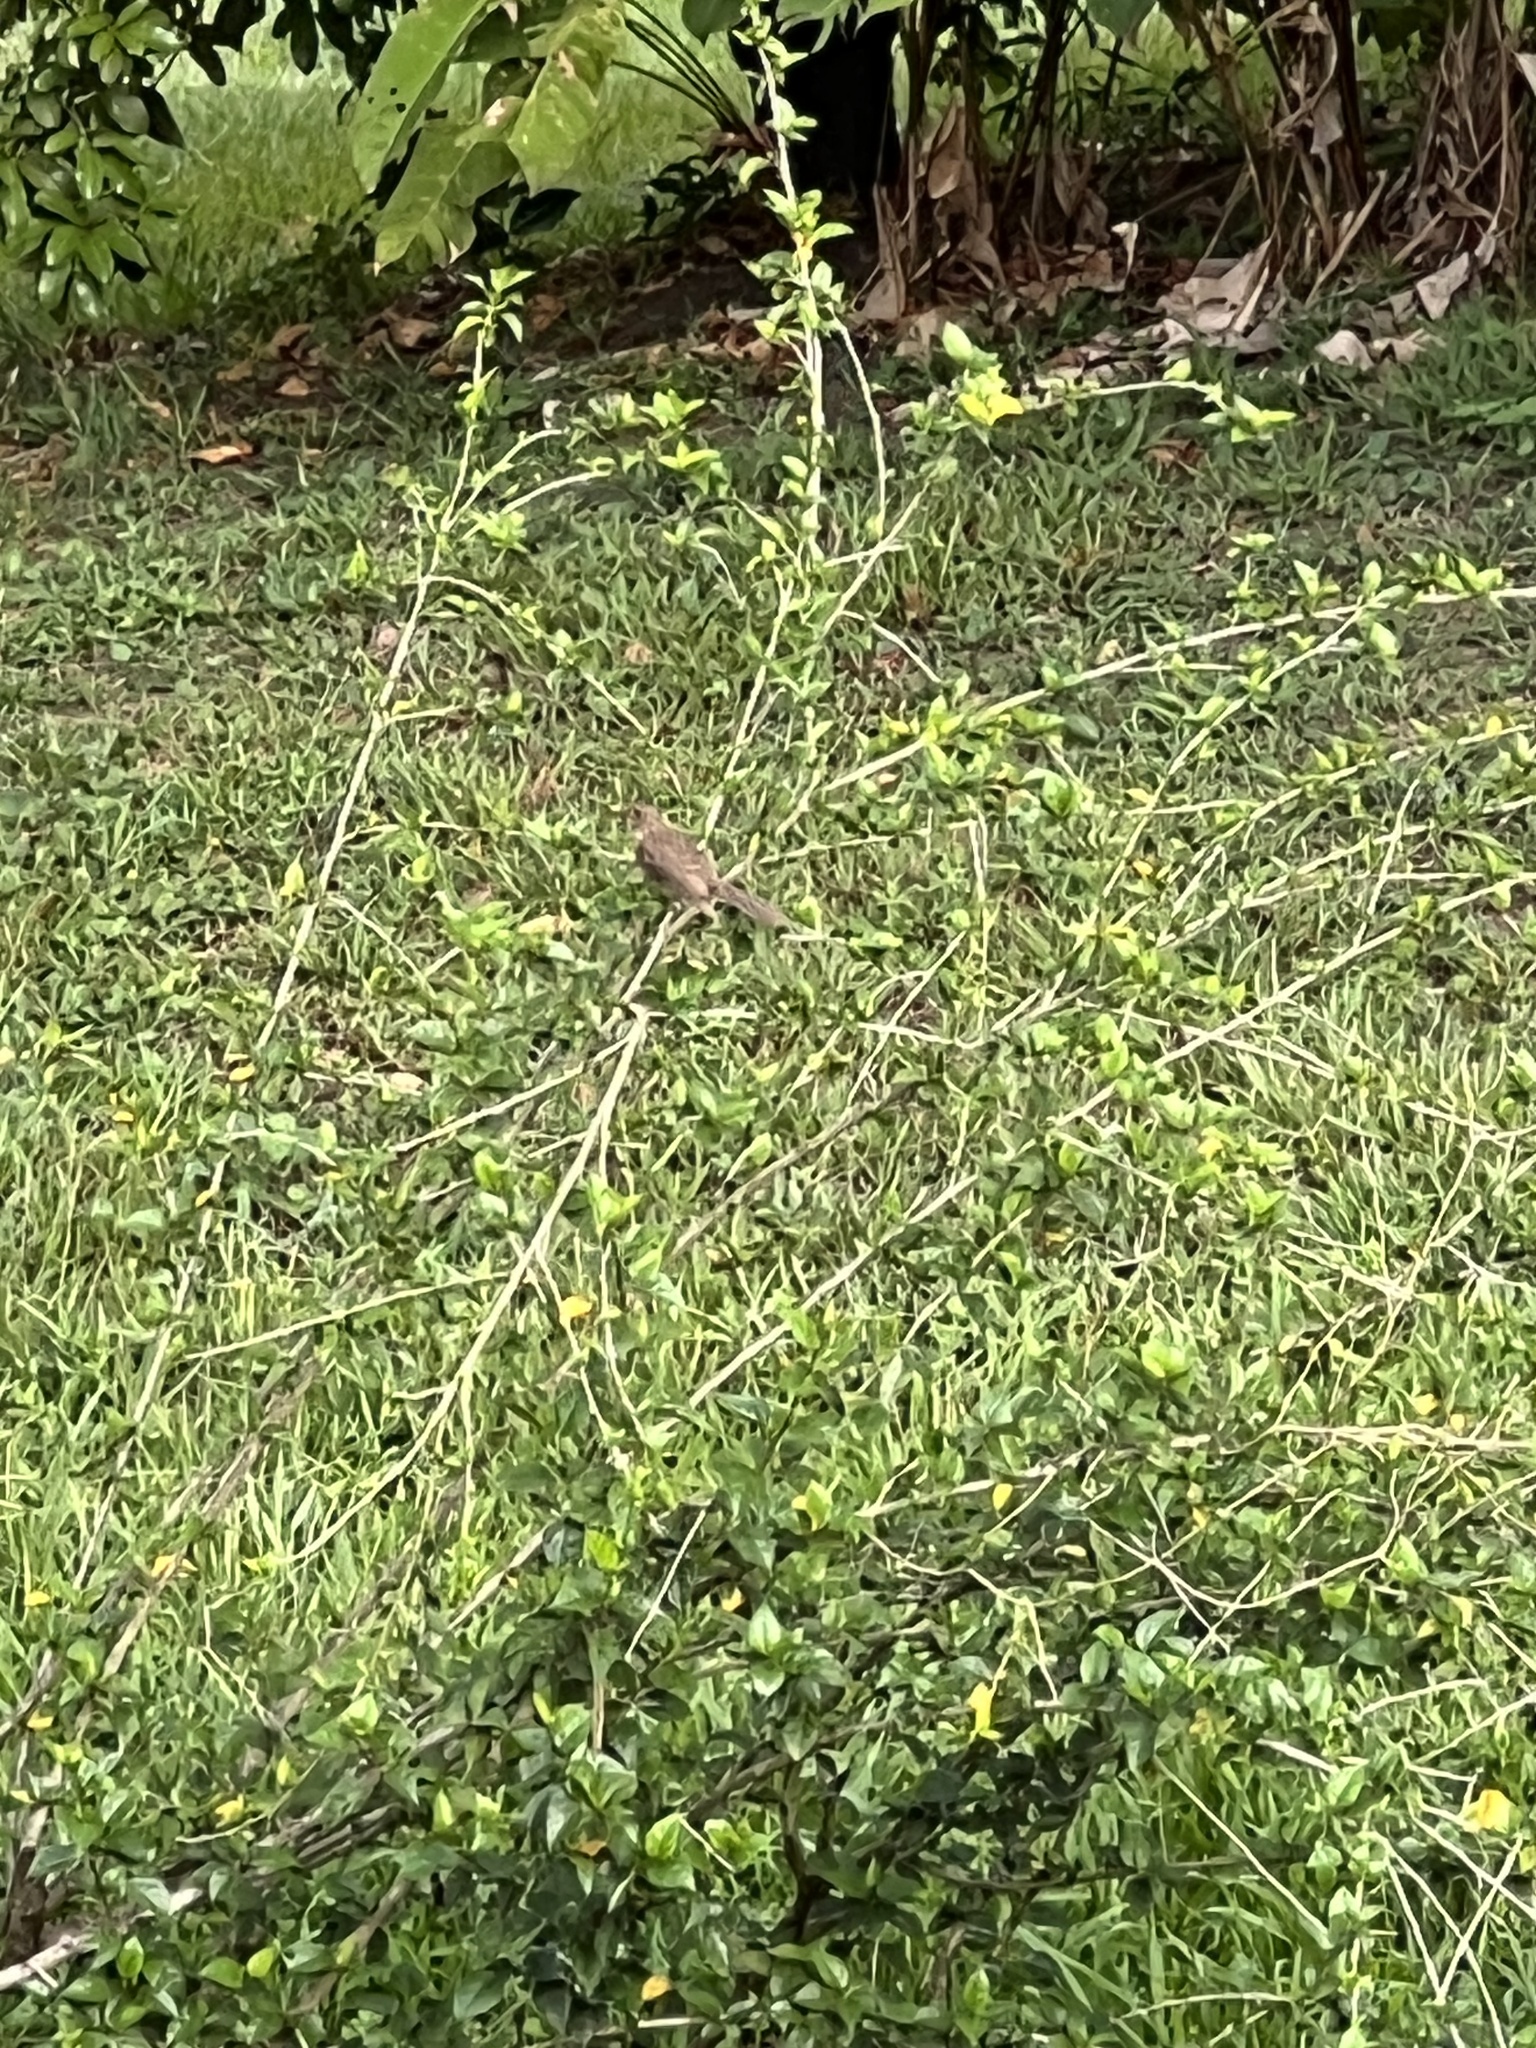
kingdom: Animalia
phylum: Chordata
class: Aves
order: Passeriformes
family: Turdidae
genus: Turdus
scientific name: Turdus grayi
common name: Clay-colored thrush
